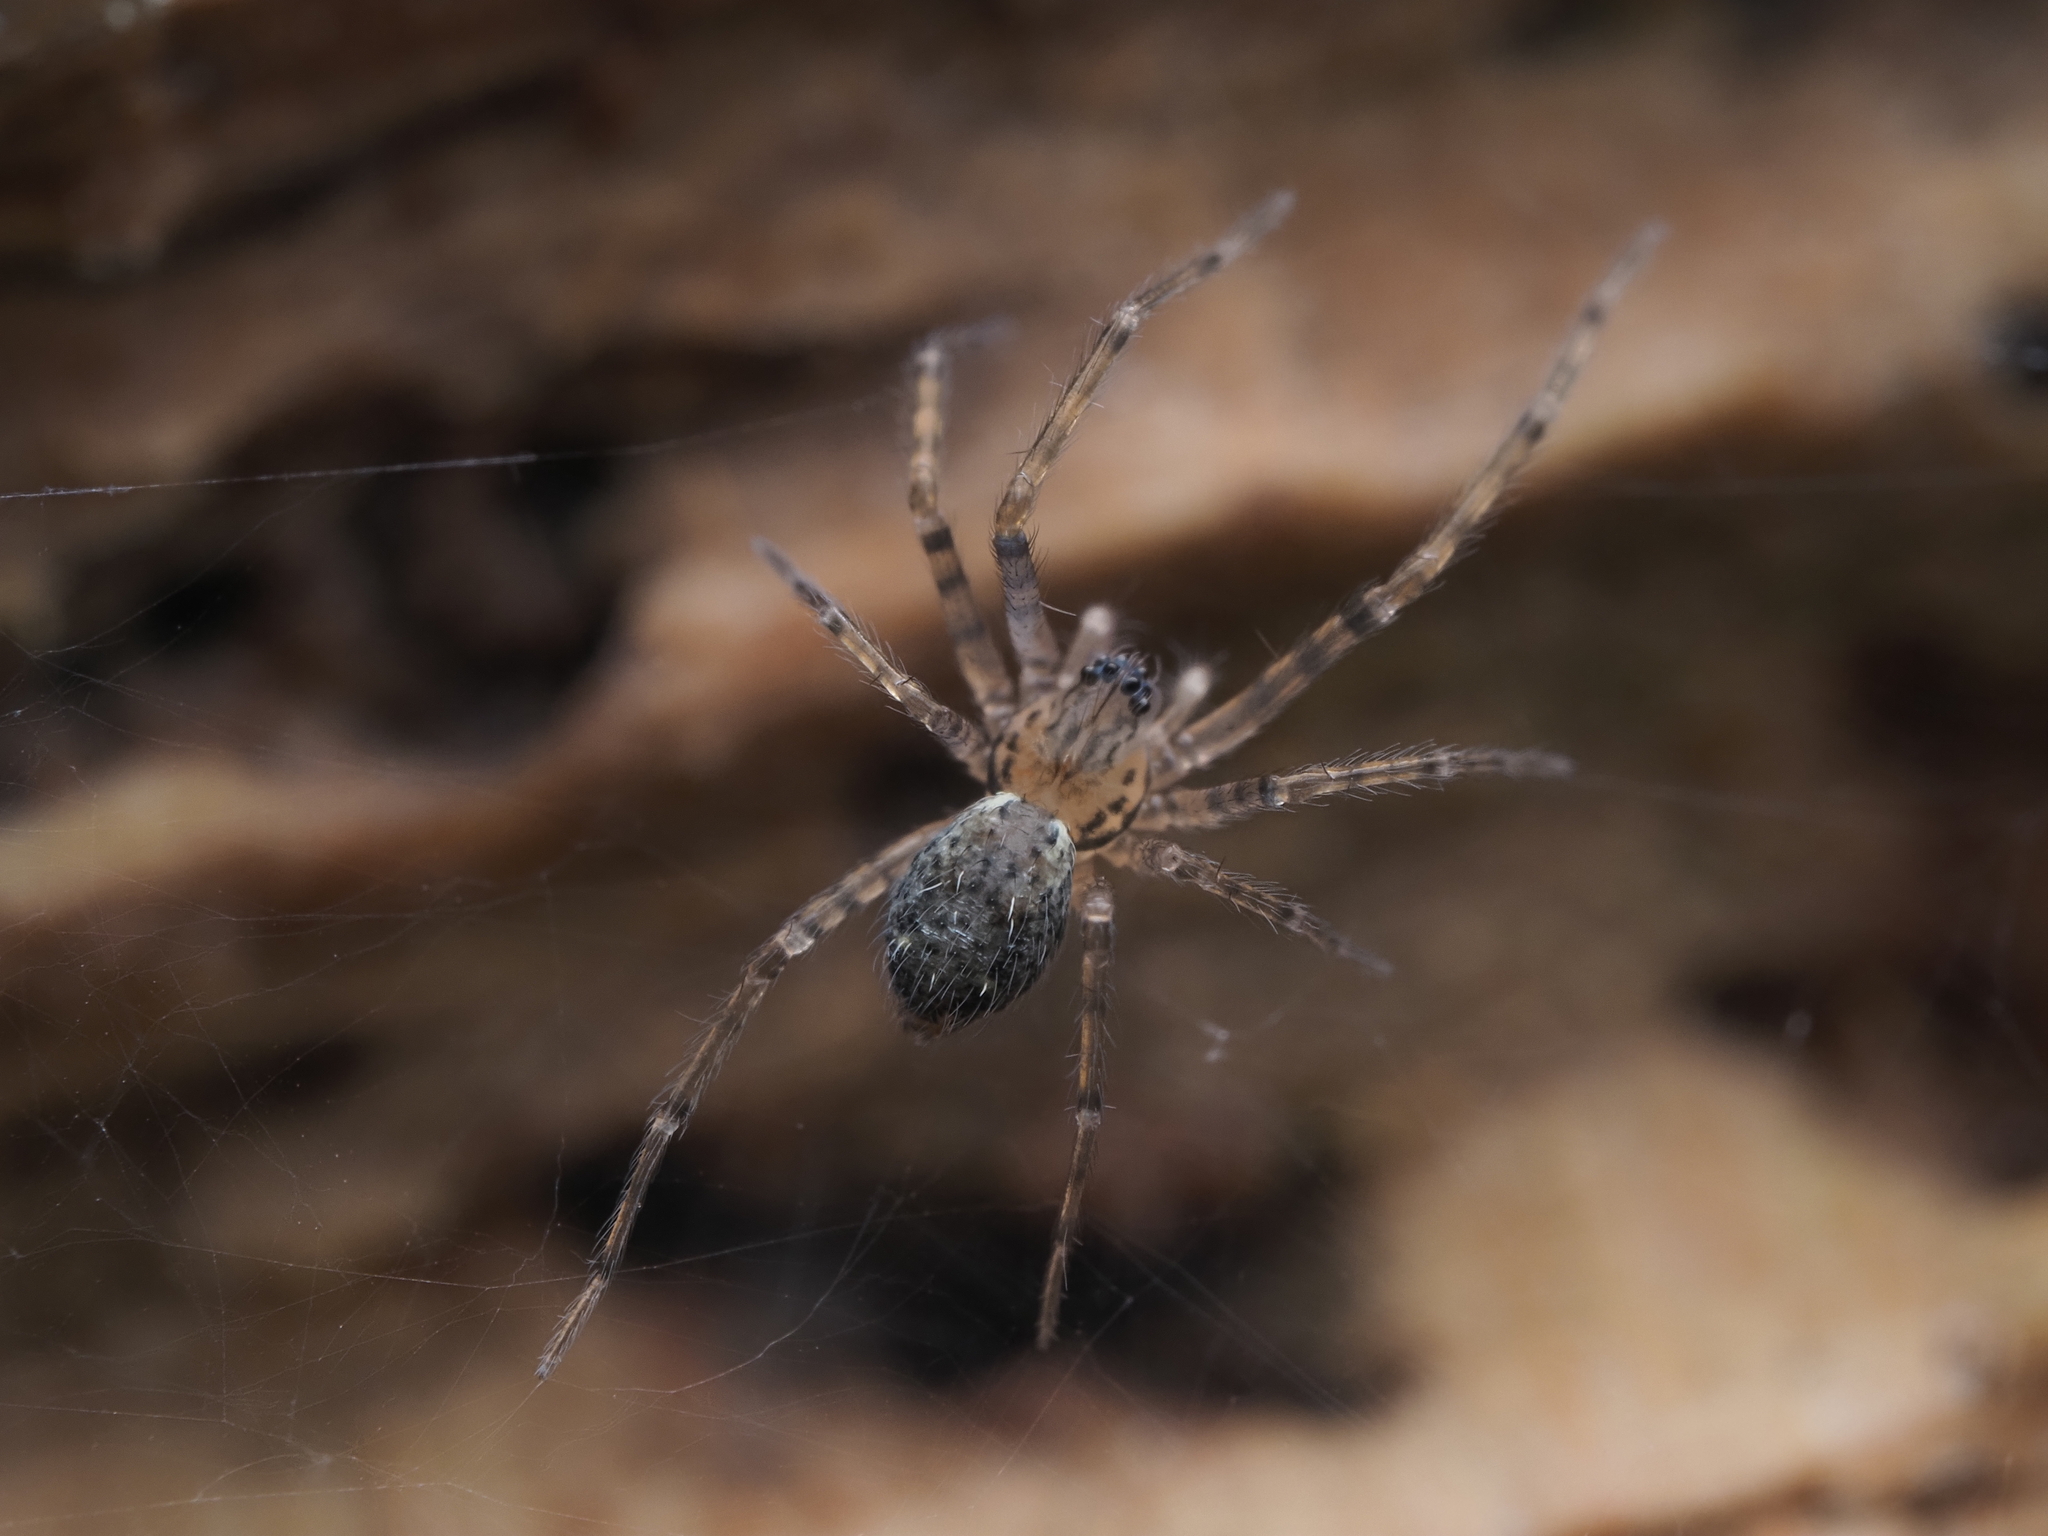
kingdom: Animalia
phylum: Arthropoda
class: Arachnida
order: Araneae
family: Stiphidiidae
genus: Stiphidion
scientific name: Stiphidion facetum
